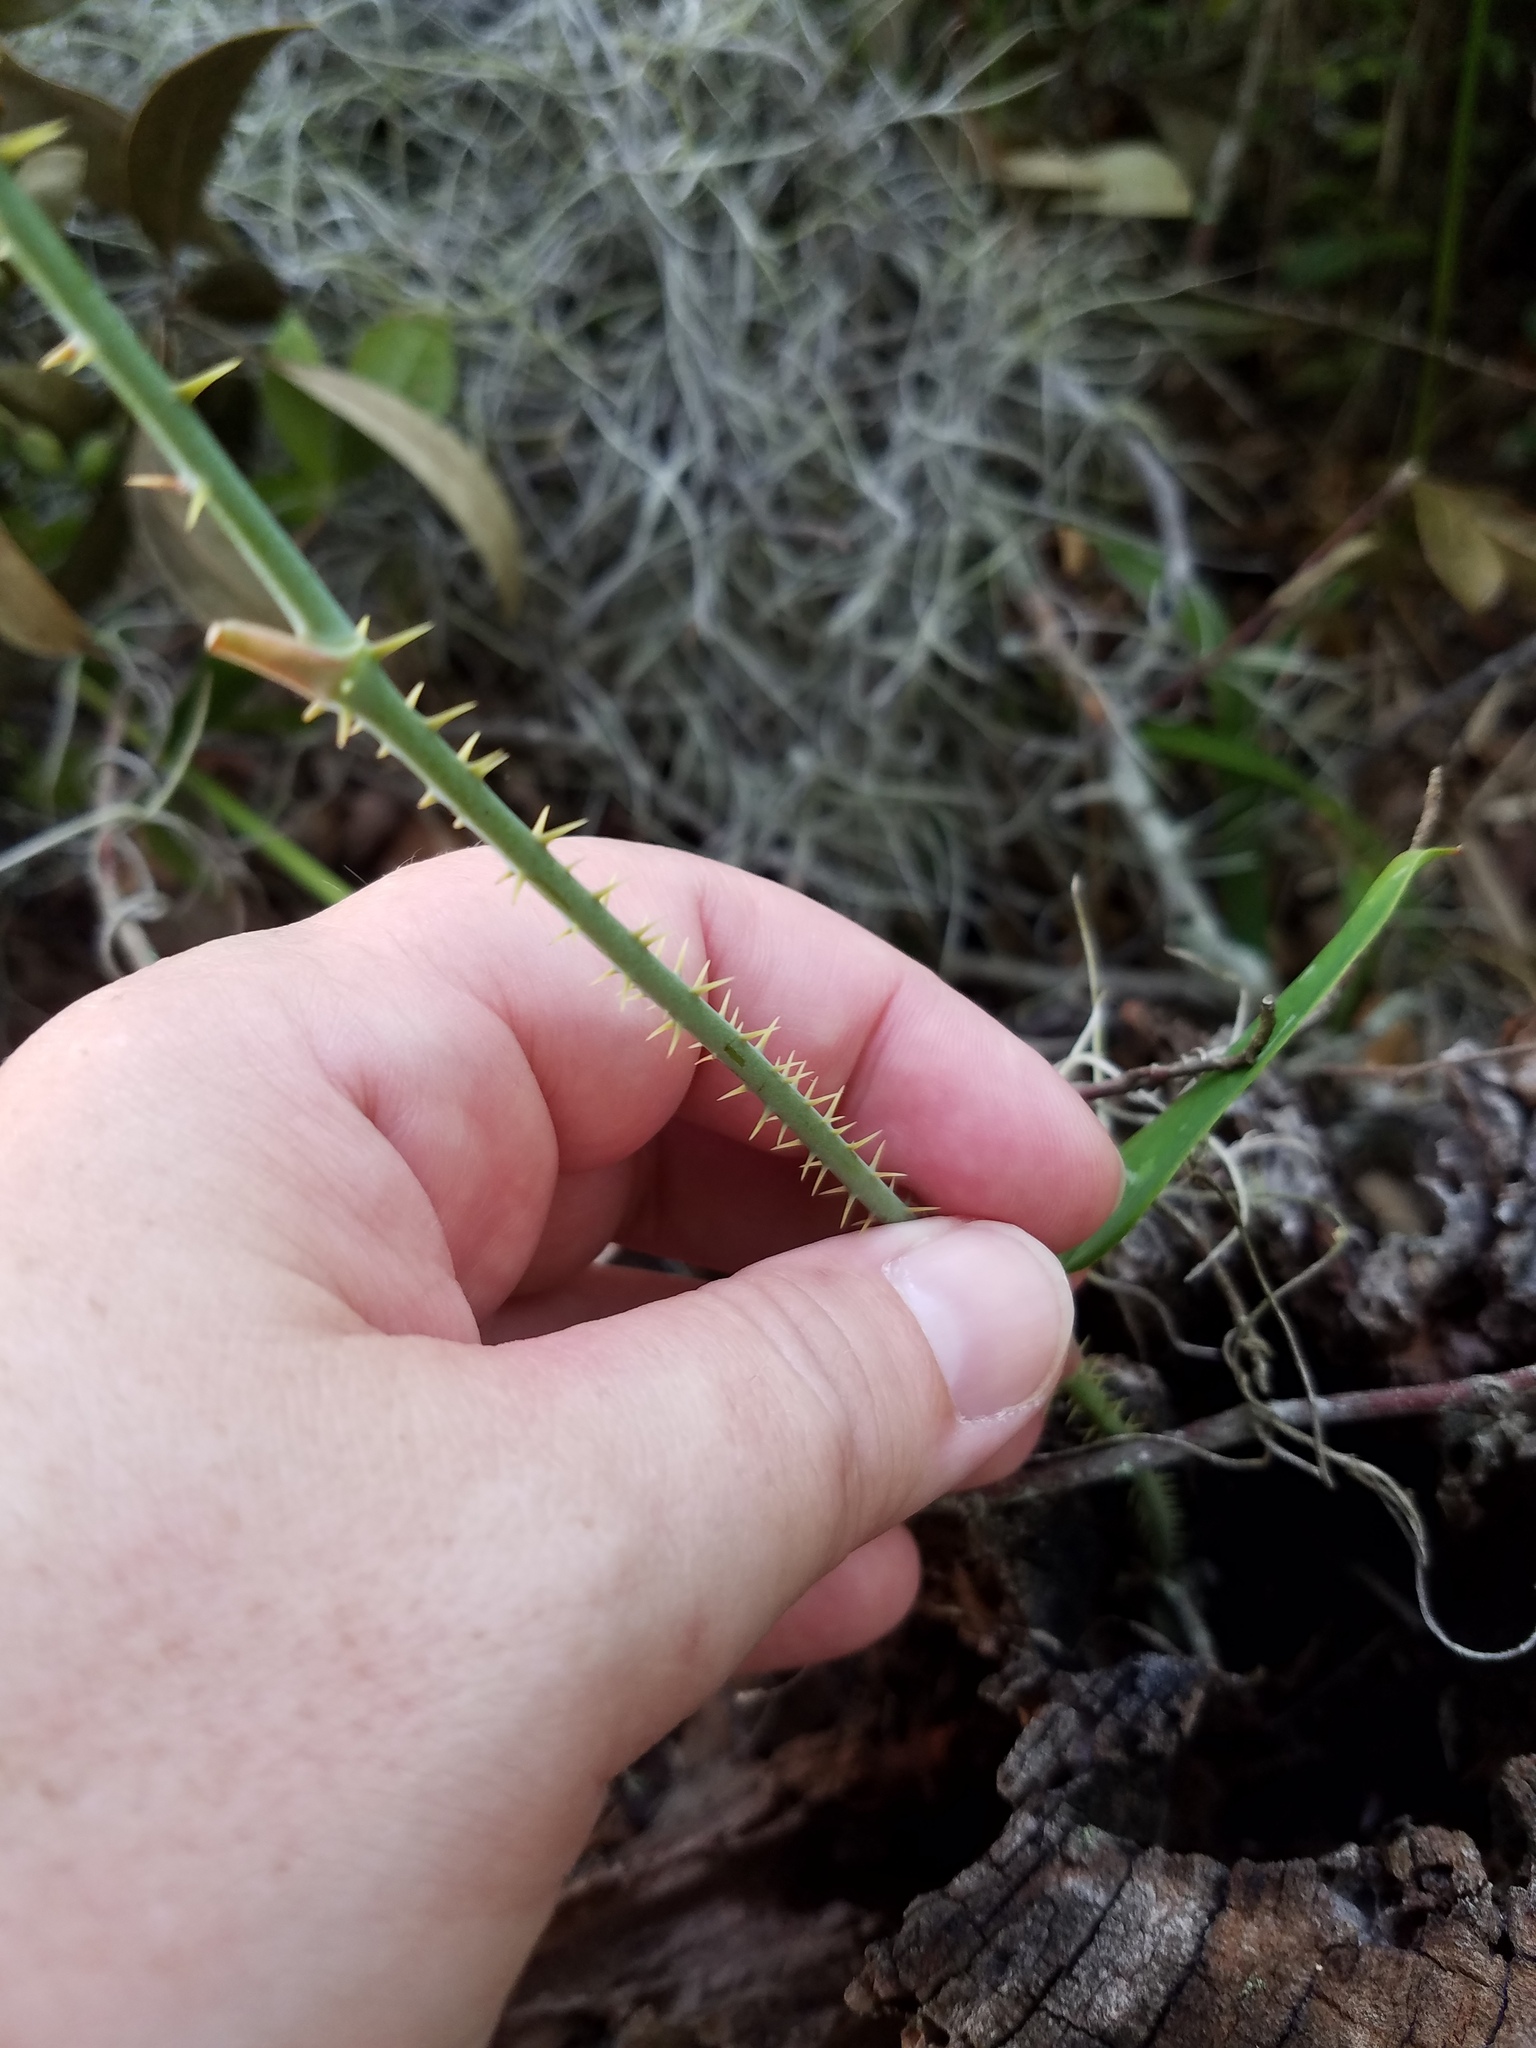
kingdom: Plantae
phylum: Tracheophyta
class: Liliopsida
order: Liliales
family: Smilacaceae
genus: Smilax
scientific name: Smilax glauca
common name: Cat greenbrier
